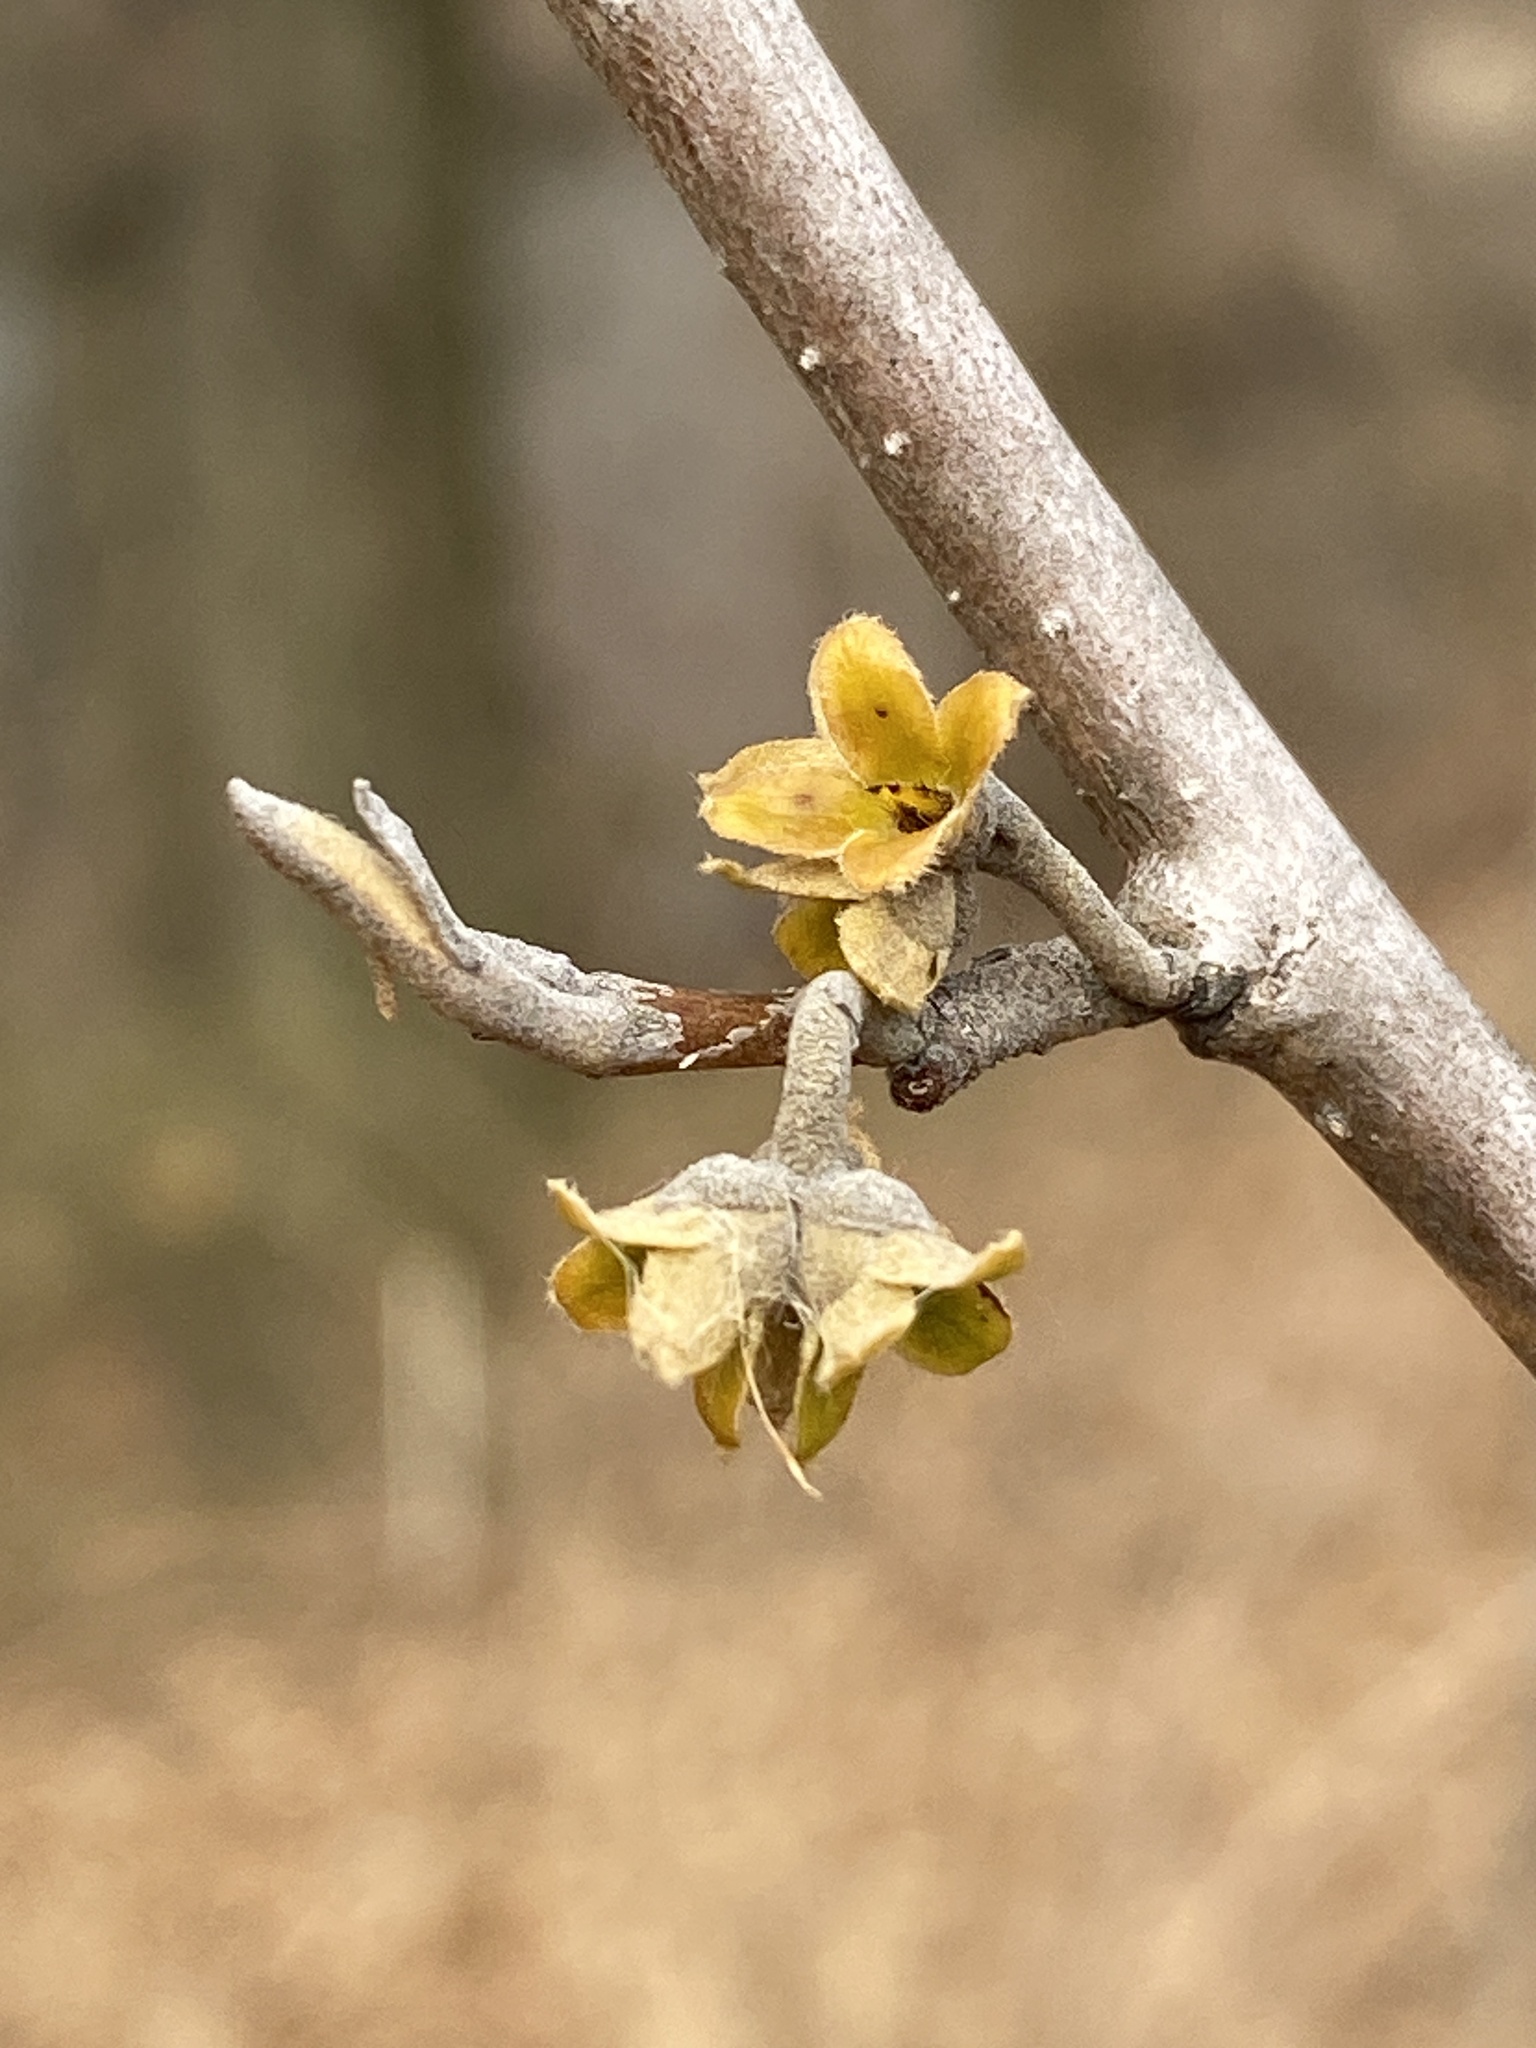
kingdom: Plantae
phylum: Tracheophyta
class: Magnoliopsida
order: Saxifragales
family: Hamamelidaceae
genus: Hamamelis
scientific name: Hamamelis virginiana
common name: Witch-hazel
